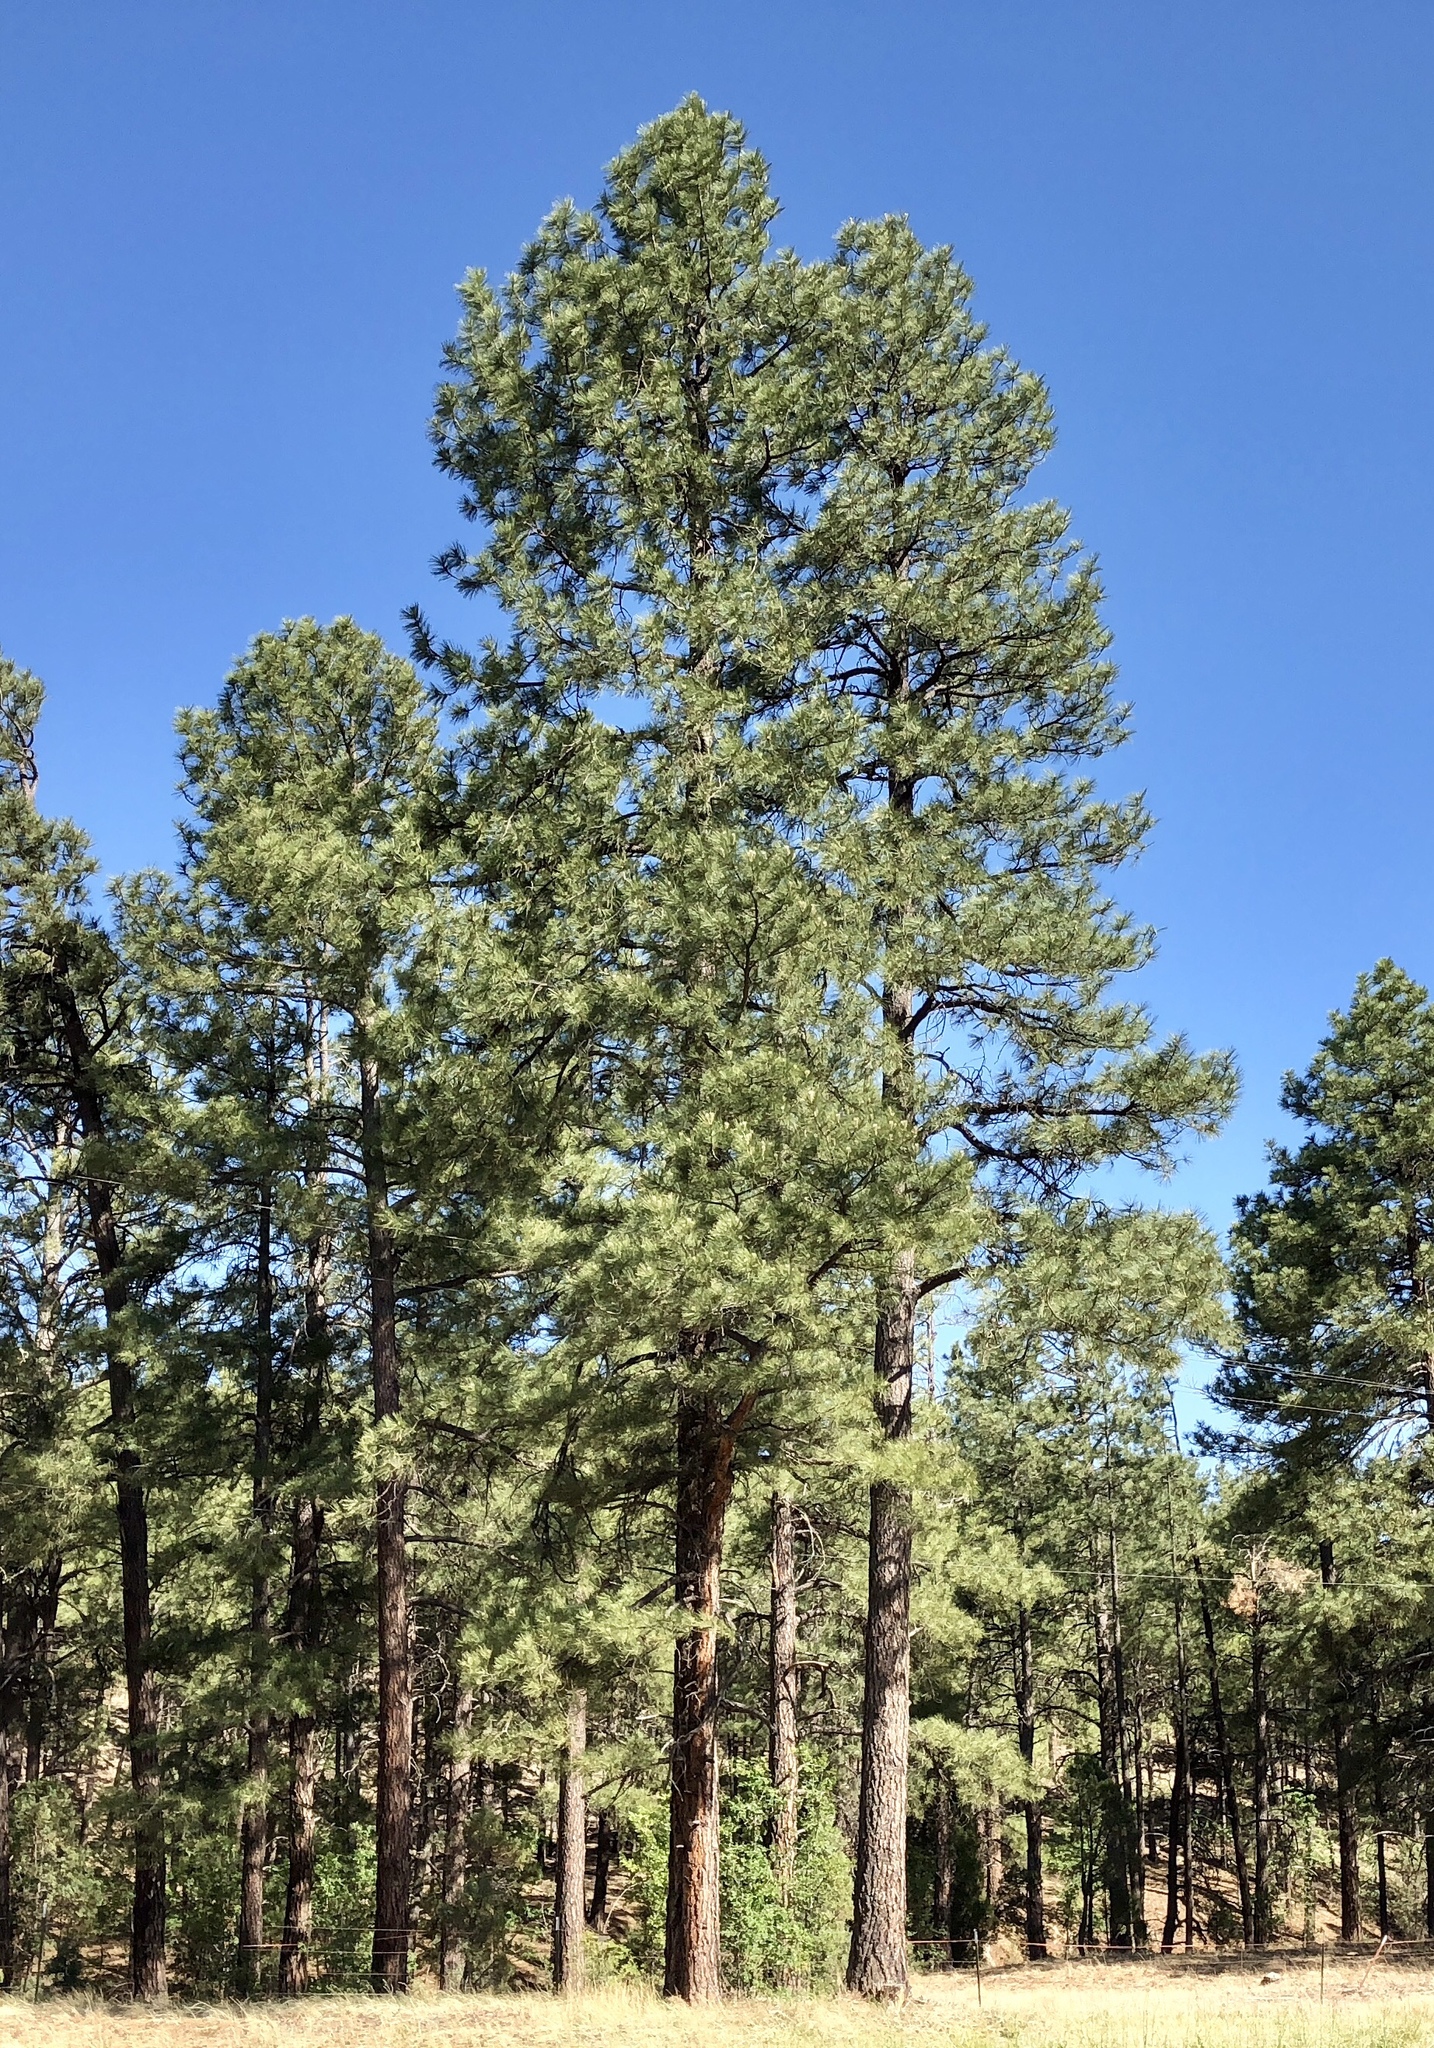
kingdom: Plantae
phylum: Tracheophyta
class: Pinopsida
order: Pinales
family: Pinaceae
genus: Pinus
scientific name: Pinus ponderosa
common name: Western yellow-pine
